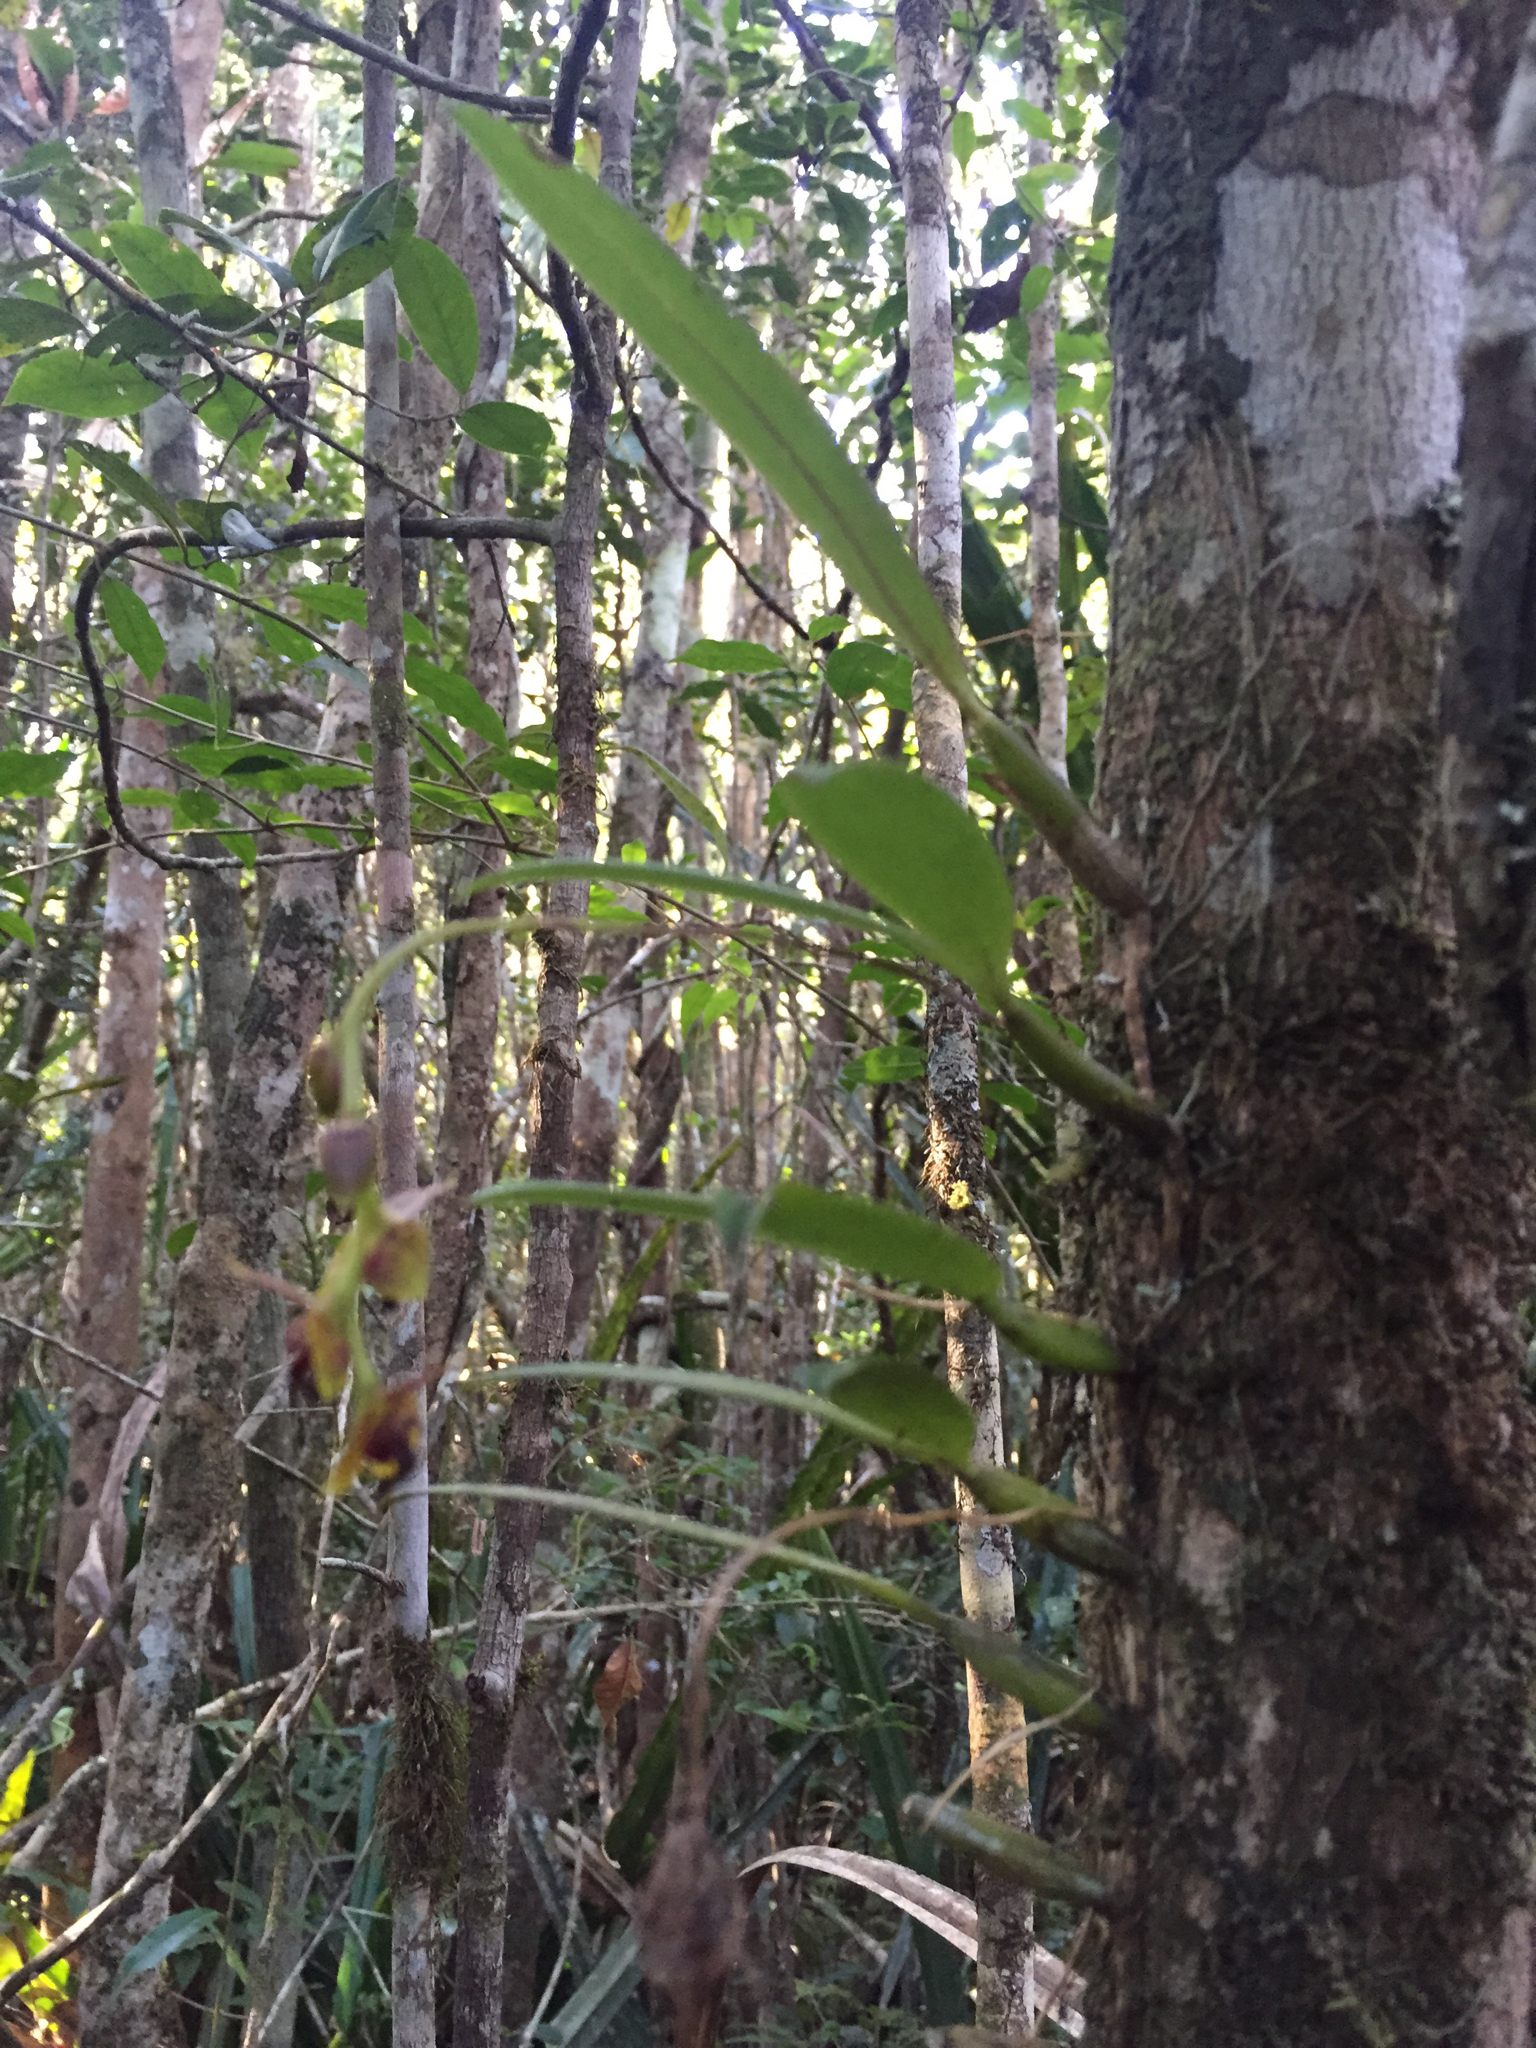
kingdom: Plantae
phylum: Tracheophyta
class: Liliopsida
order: Asparagales
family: Orchidaceae
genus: Bulbophyllum
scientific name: Bulbophyllum francoisii
